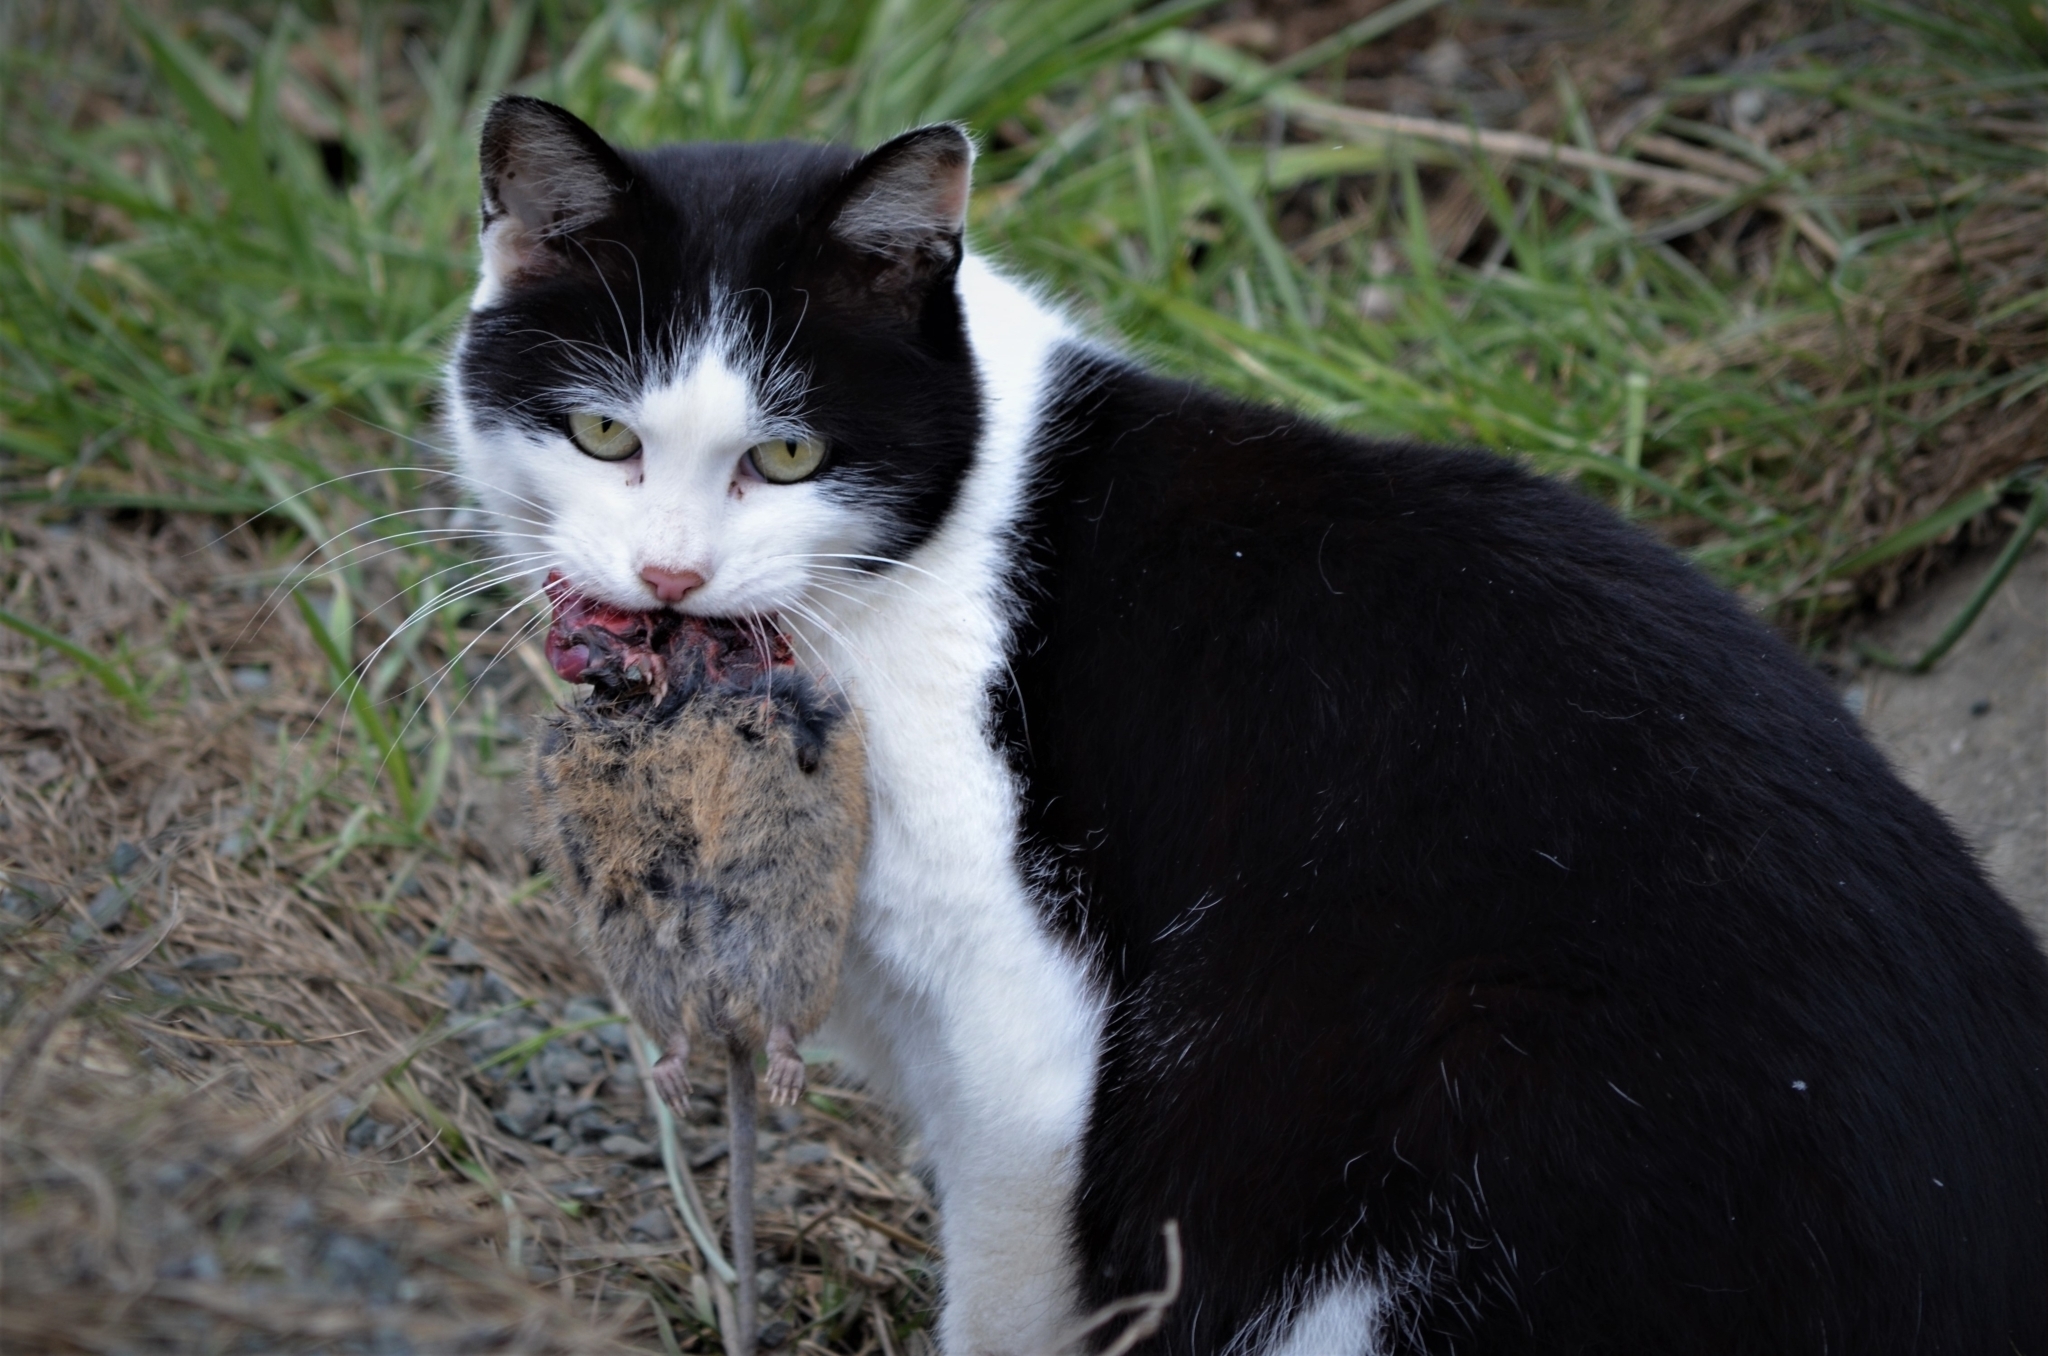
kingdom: Animalia
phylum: Chordata
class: Mammalia
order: Rodentia
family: Cricetidae
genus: Arvicola
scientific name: Arvicola amphibius
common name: European water vole
